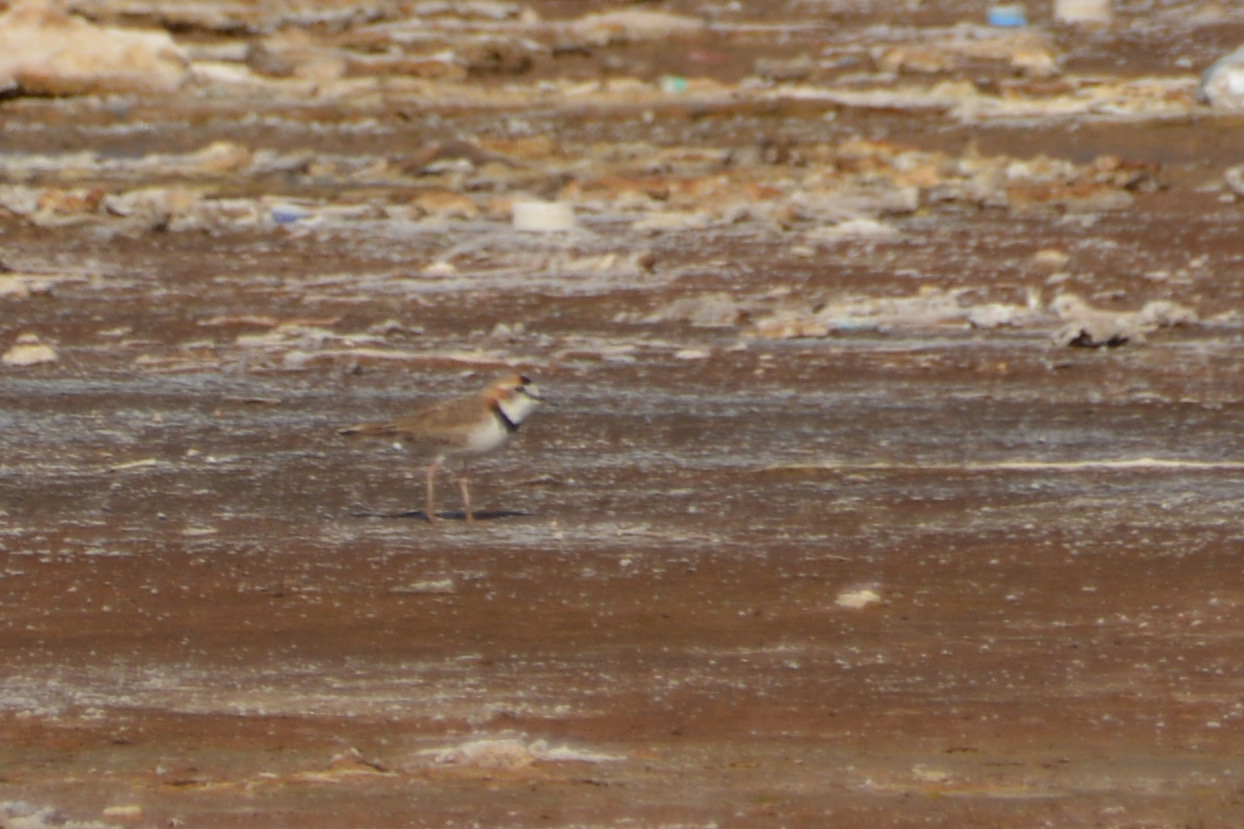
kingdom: Animalia
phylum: Chordata
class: Aves
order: Charadriiformes
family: Charadriidae
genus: Anarhynchus
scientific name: Anarhynchus
